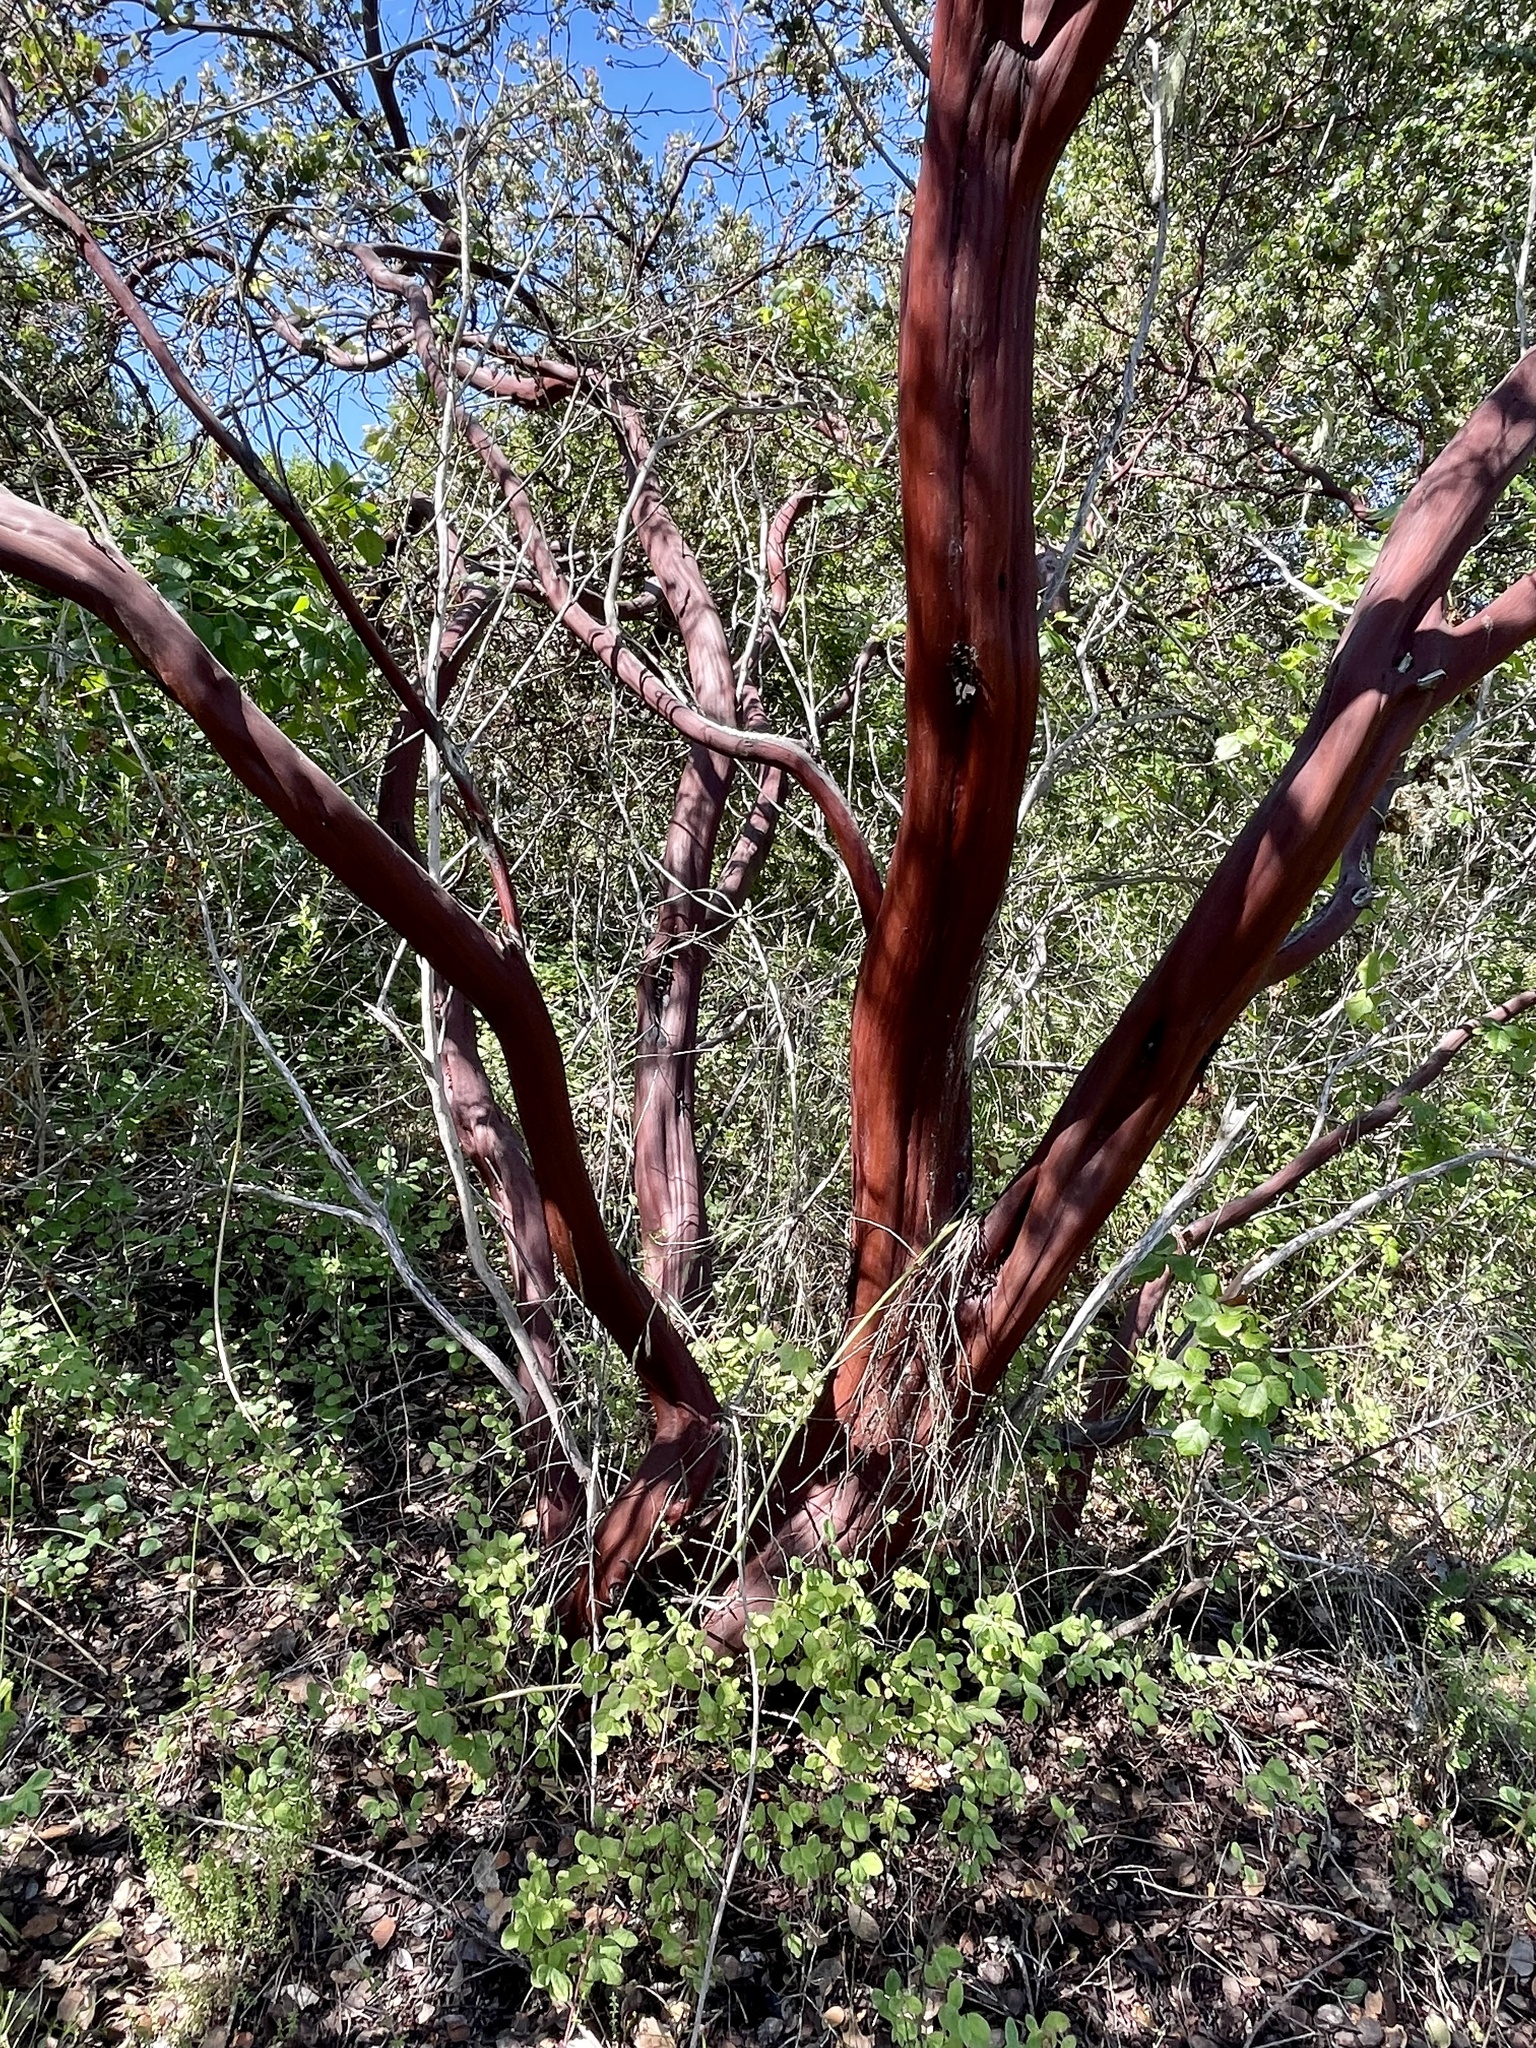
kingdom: Plantae
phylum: Tracheophyta
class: Magnoliopsida
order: Ericales
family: Ericaceae
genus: Arctostaphylos
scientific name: Arctostaphylos montereyensis
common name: Monterey manzanita
